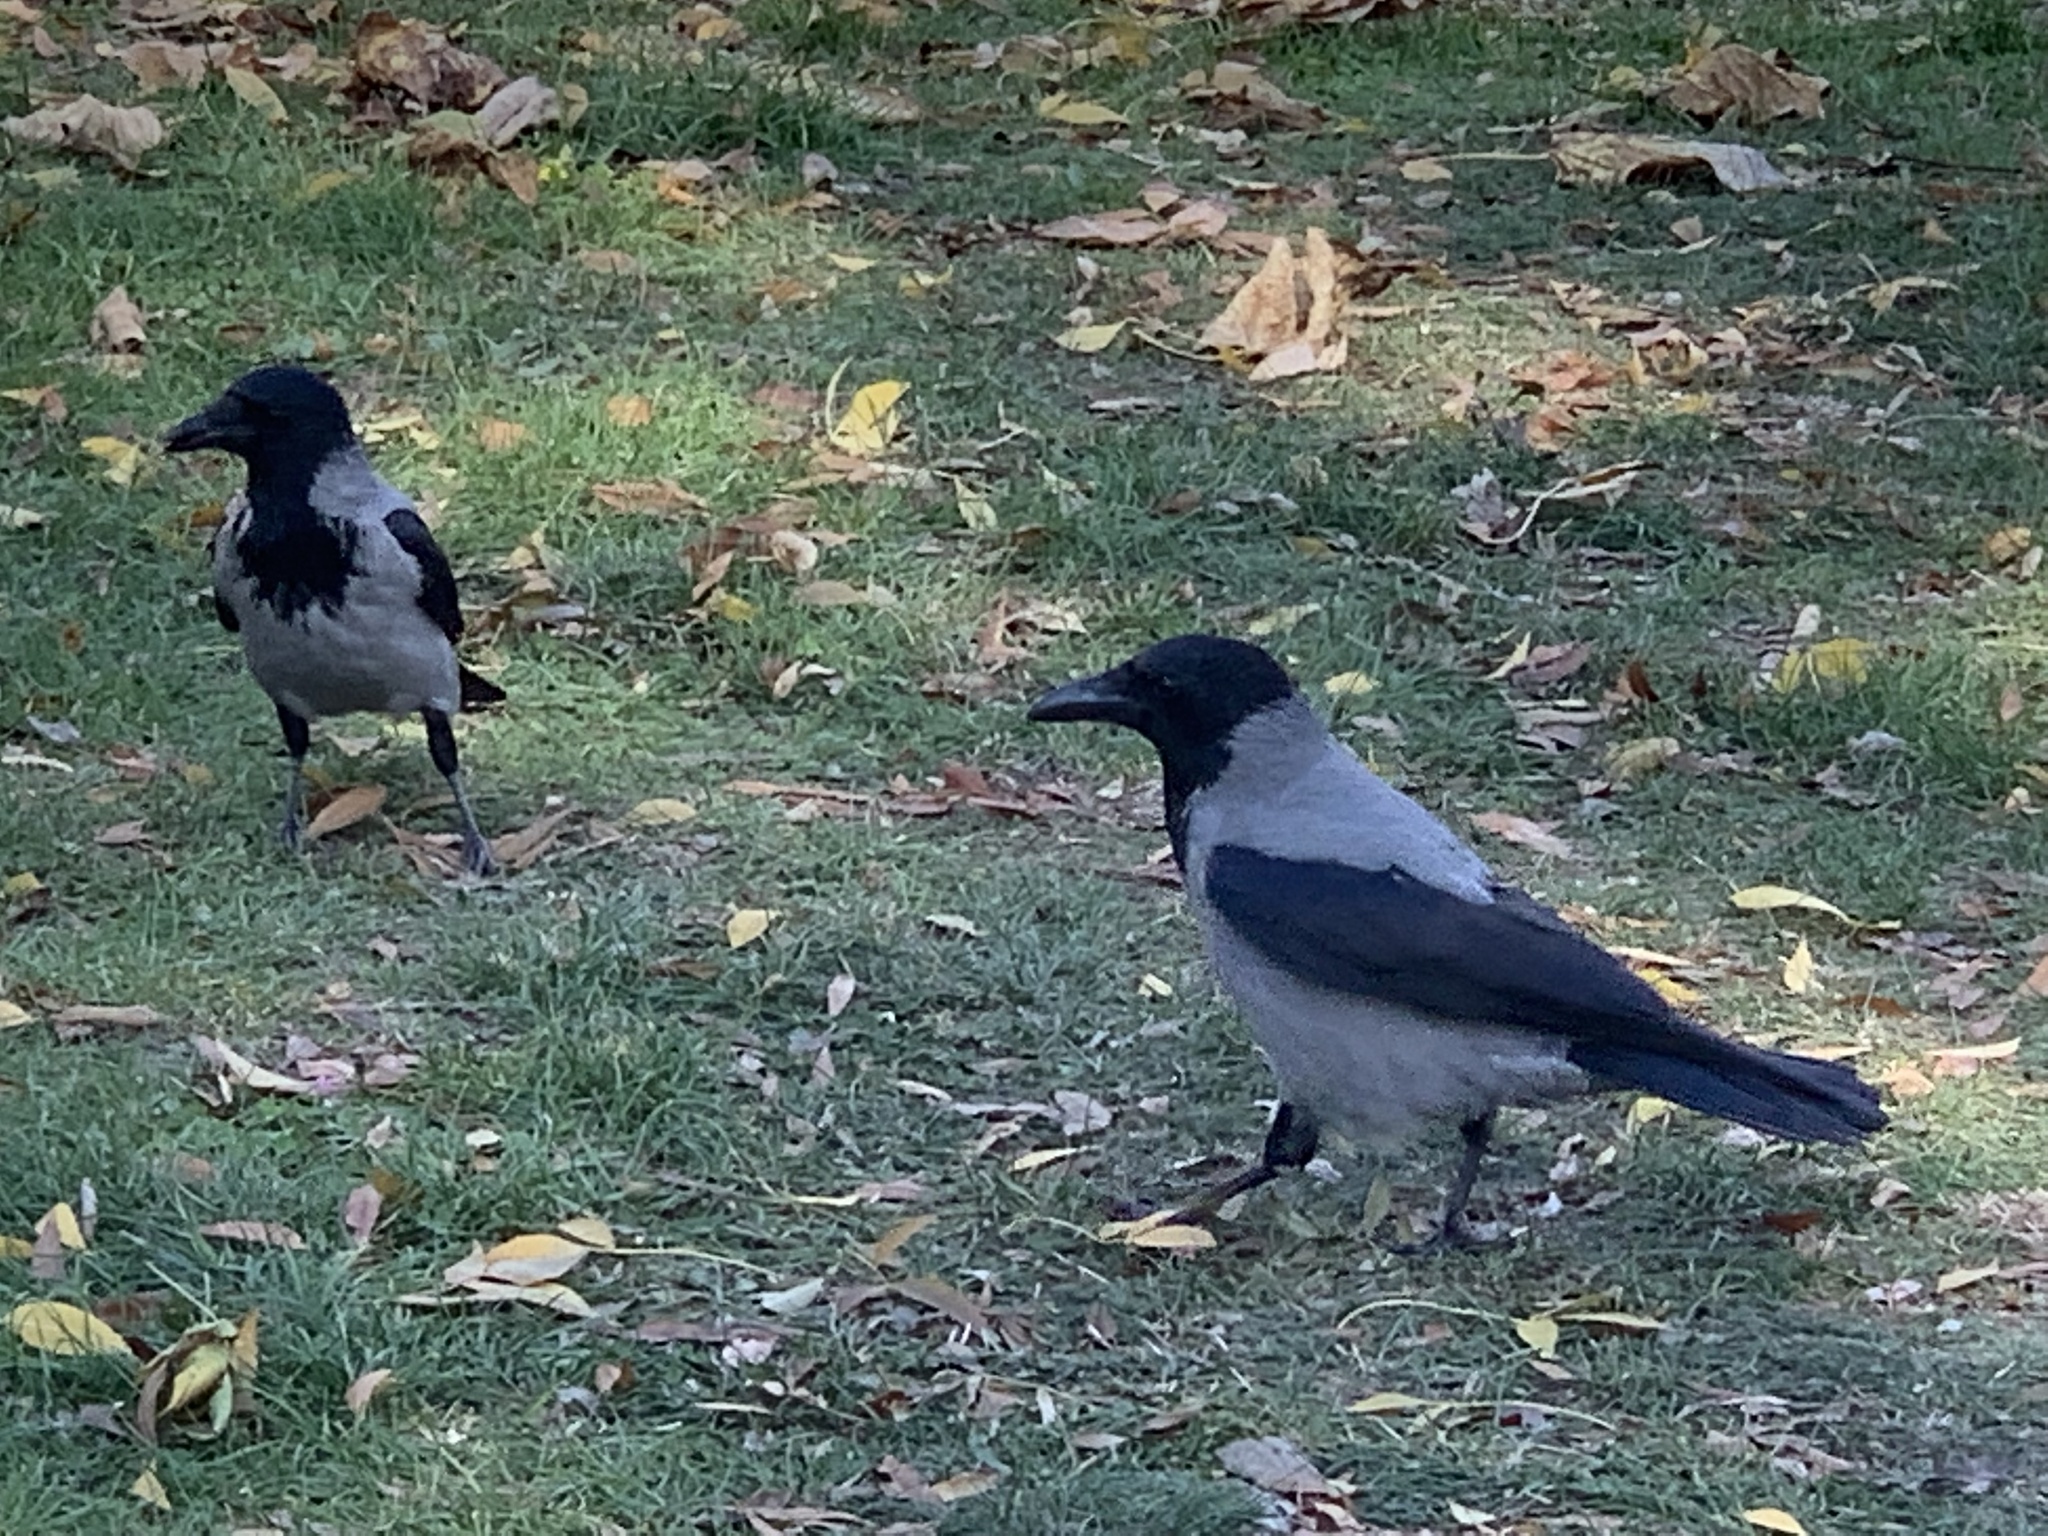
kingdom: Animalia
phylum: Chordata
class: Aves
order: Passeriformes
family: Corvidae
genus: Corvus
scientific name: Corvus cornix
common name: Hooded crow
